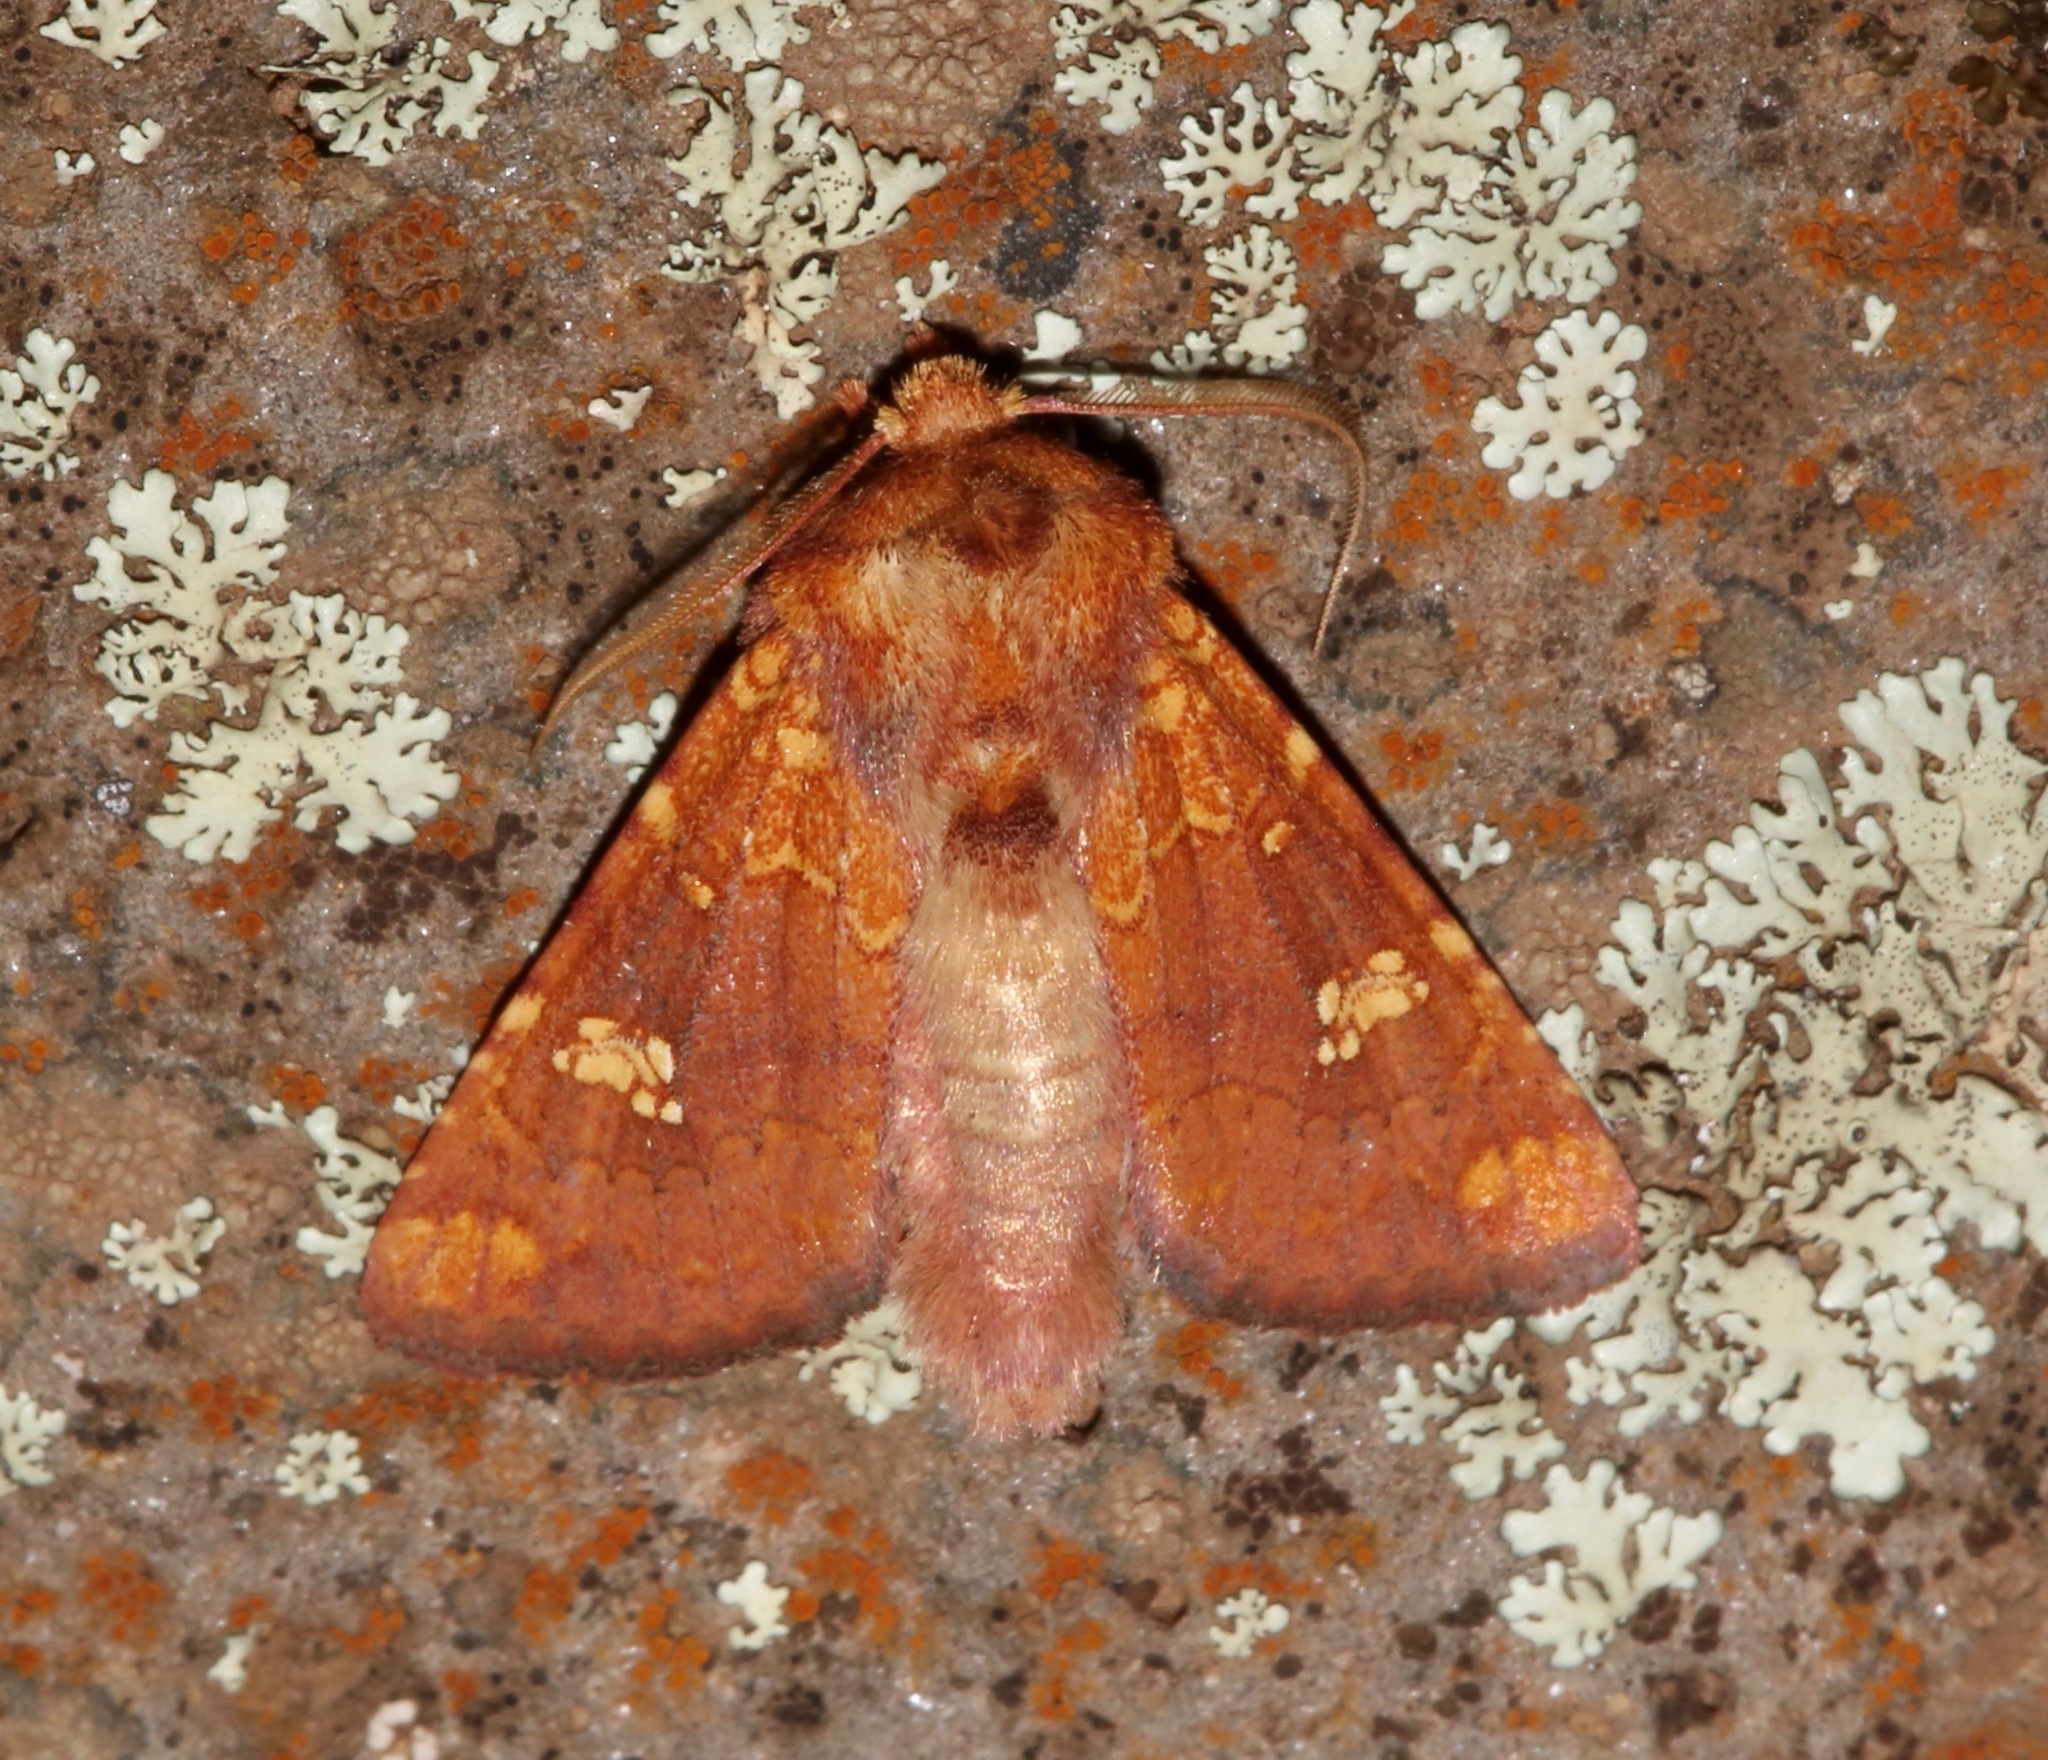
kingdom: Animalia
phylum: Arthropoda
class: Insecta
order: Lepidoptera
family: Noctuidae
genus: Hydroeciodes
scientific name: Hydroeciodes serrata
